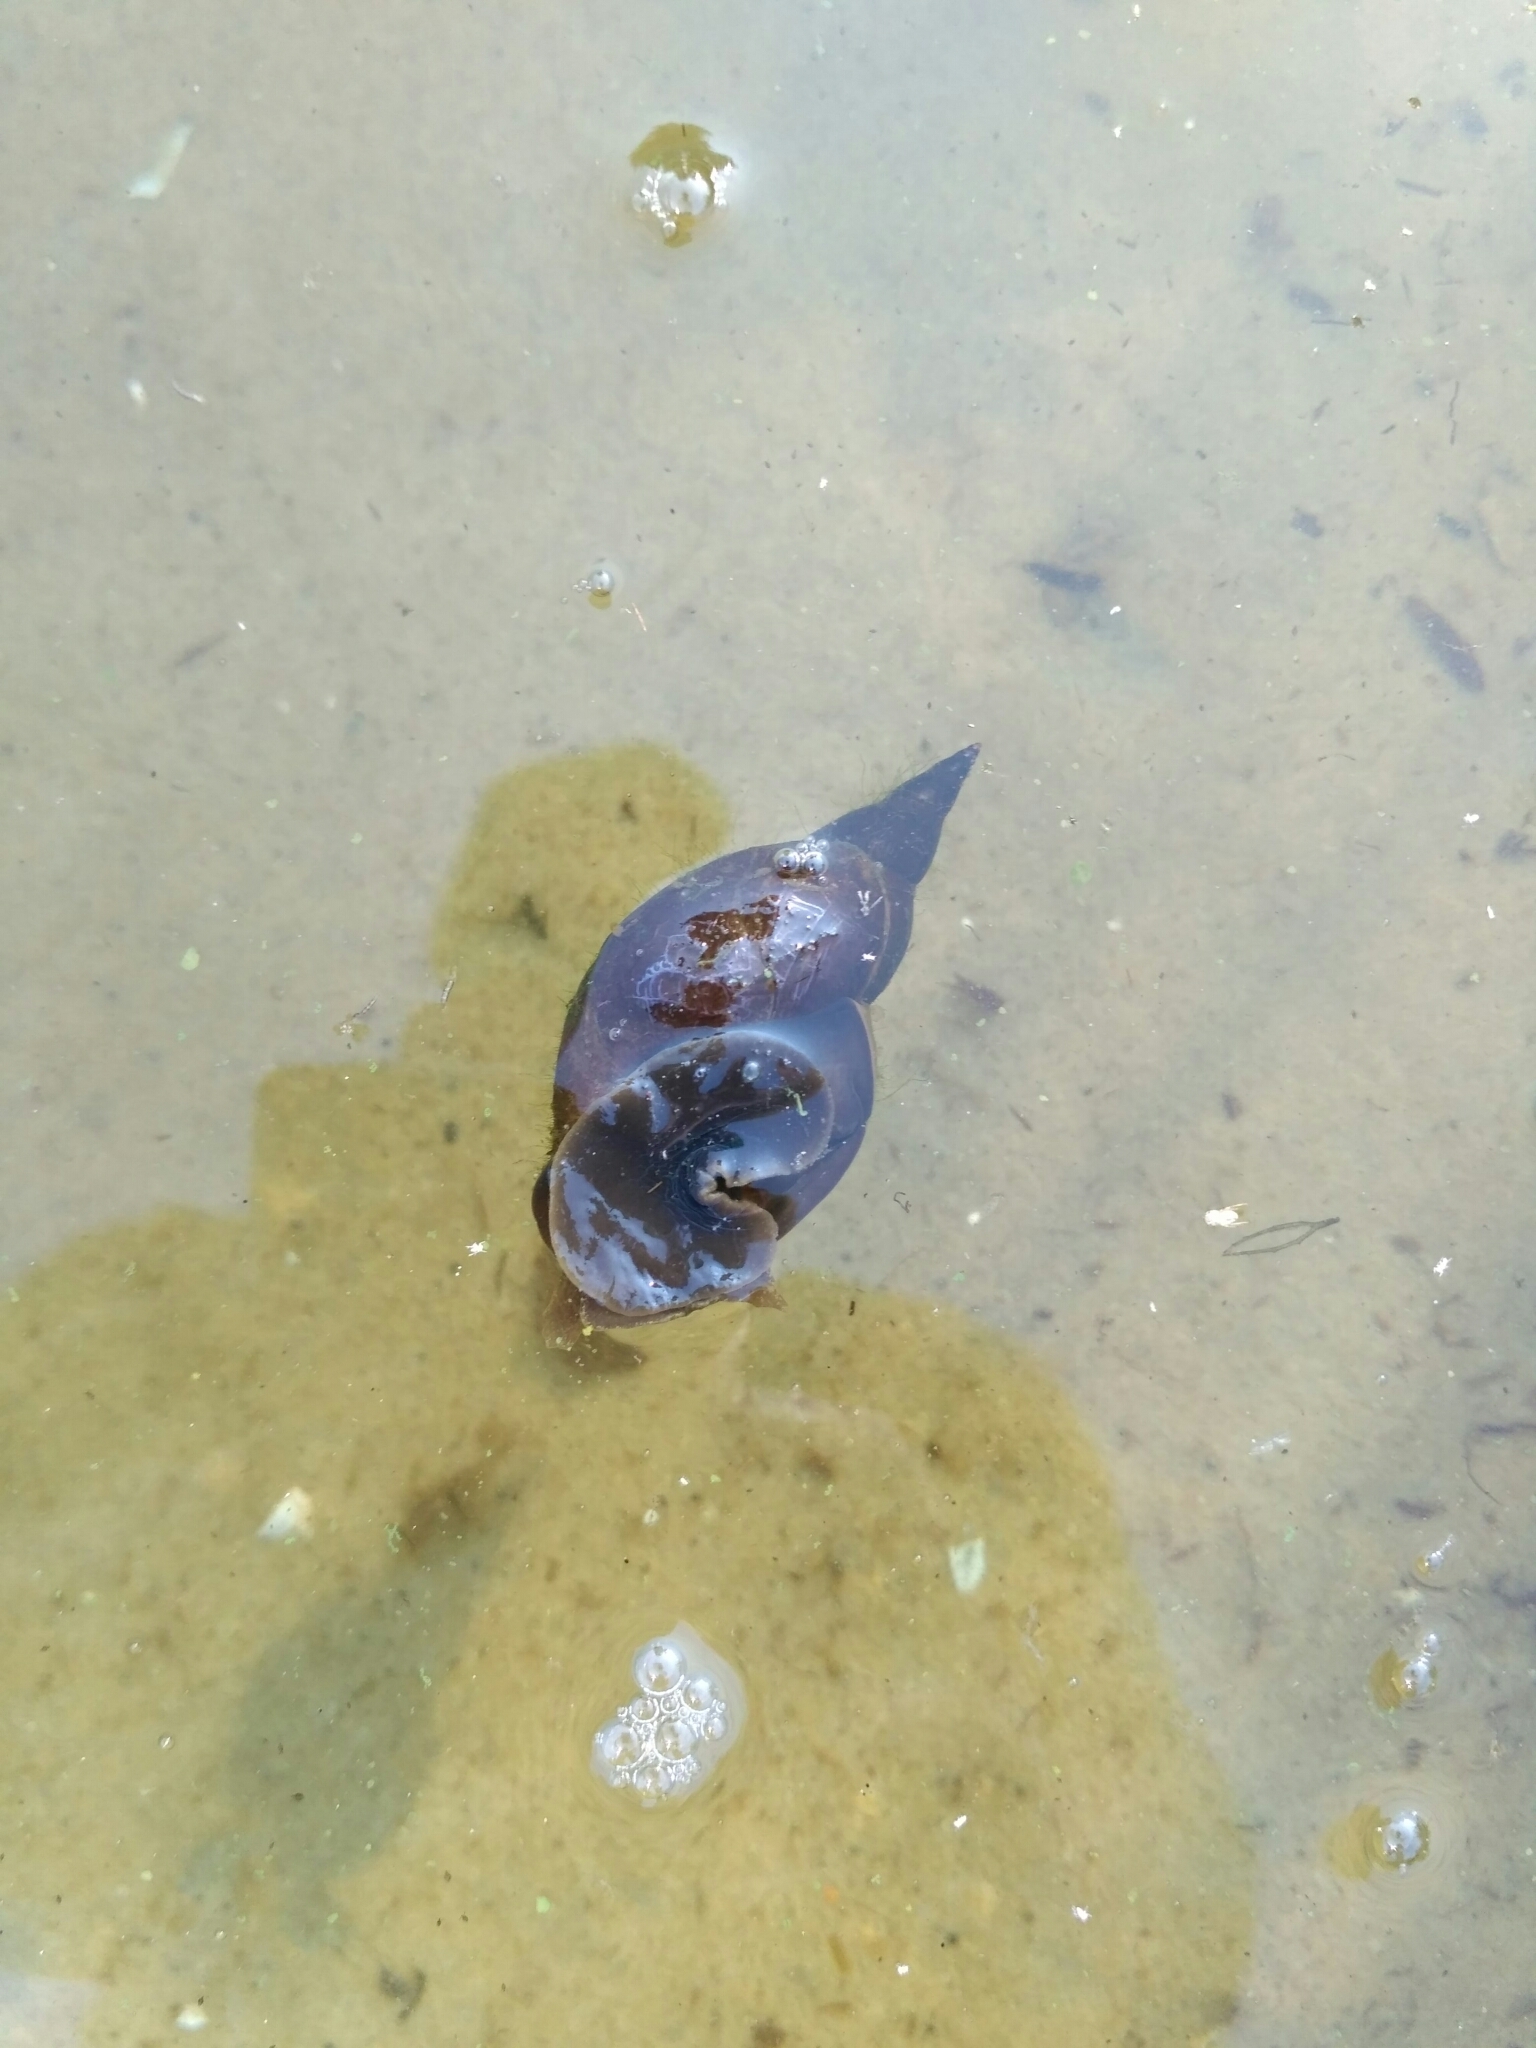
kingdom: Animalia
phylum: Mollusca
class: Gastropoda
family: Lymnaeidae
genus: Lymnaea
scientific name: Lymnaea stagnalis
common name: Great pond snail
